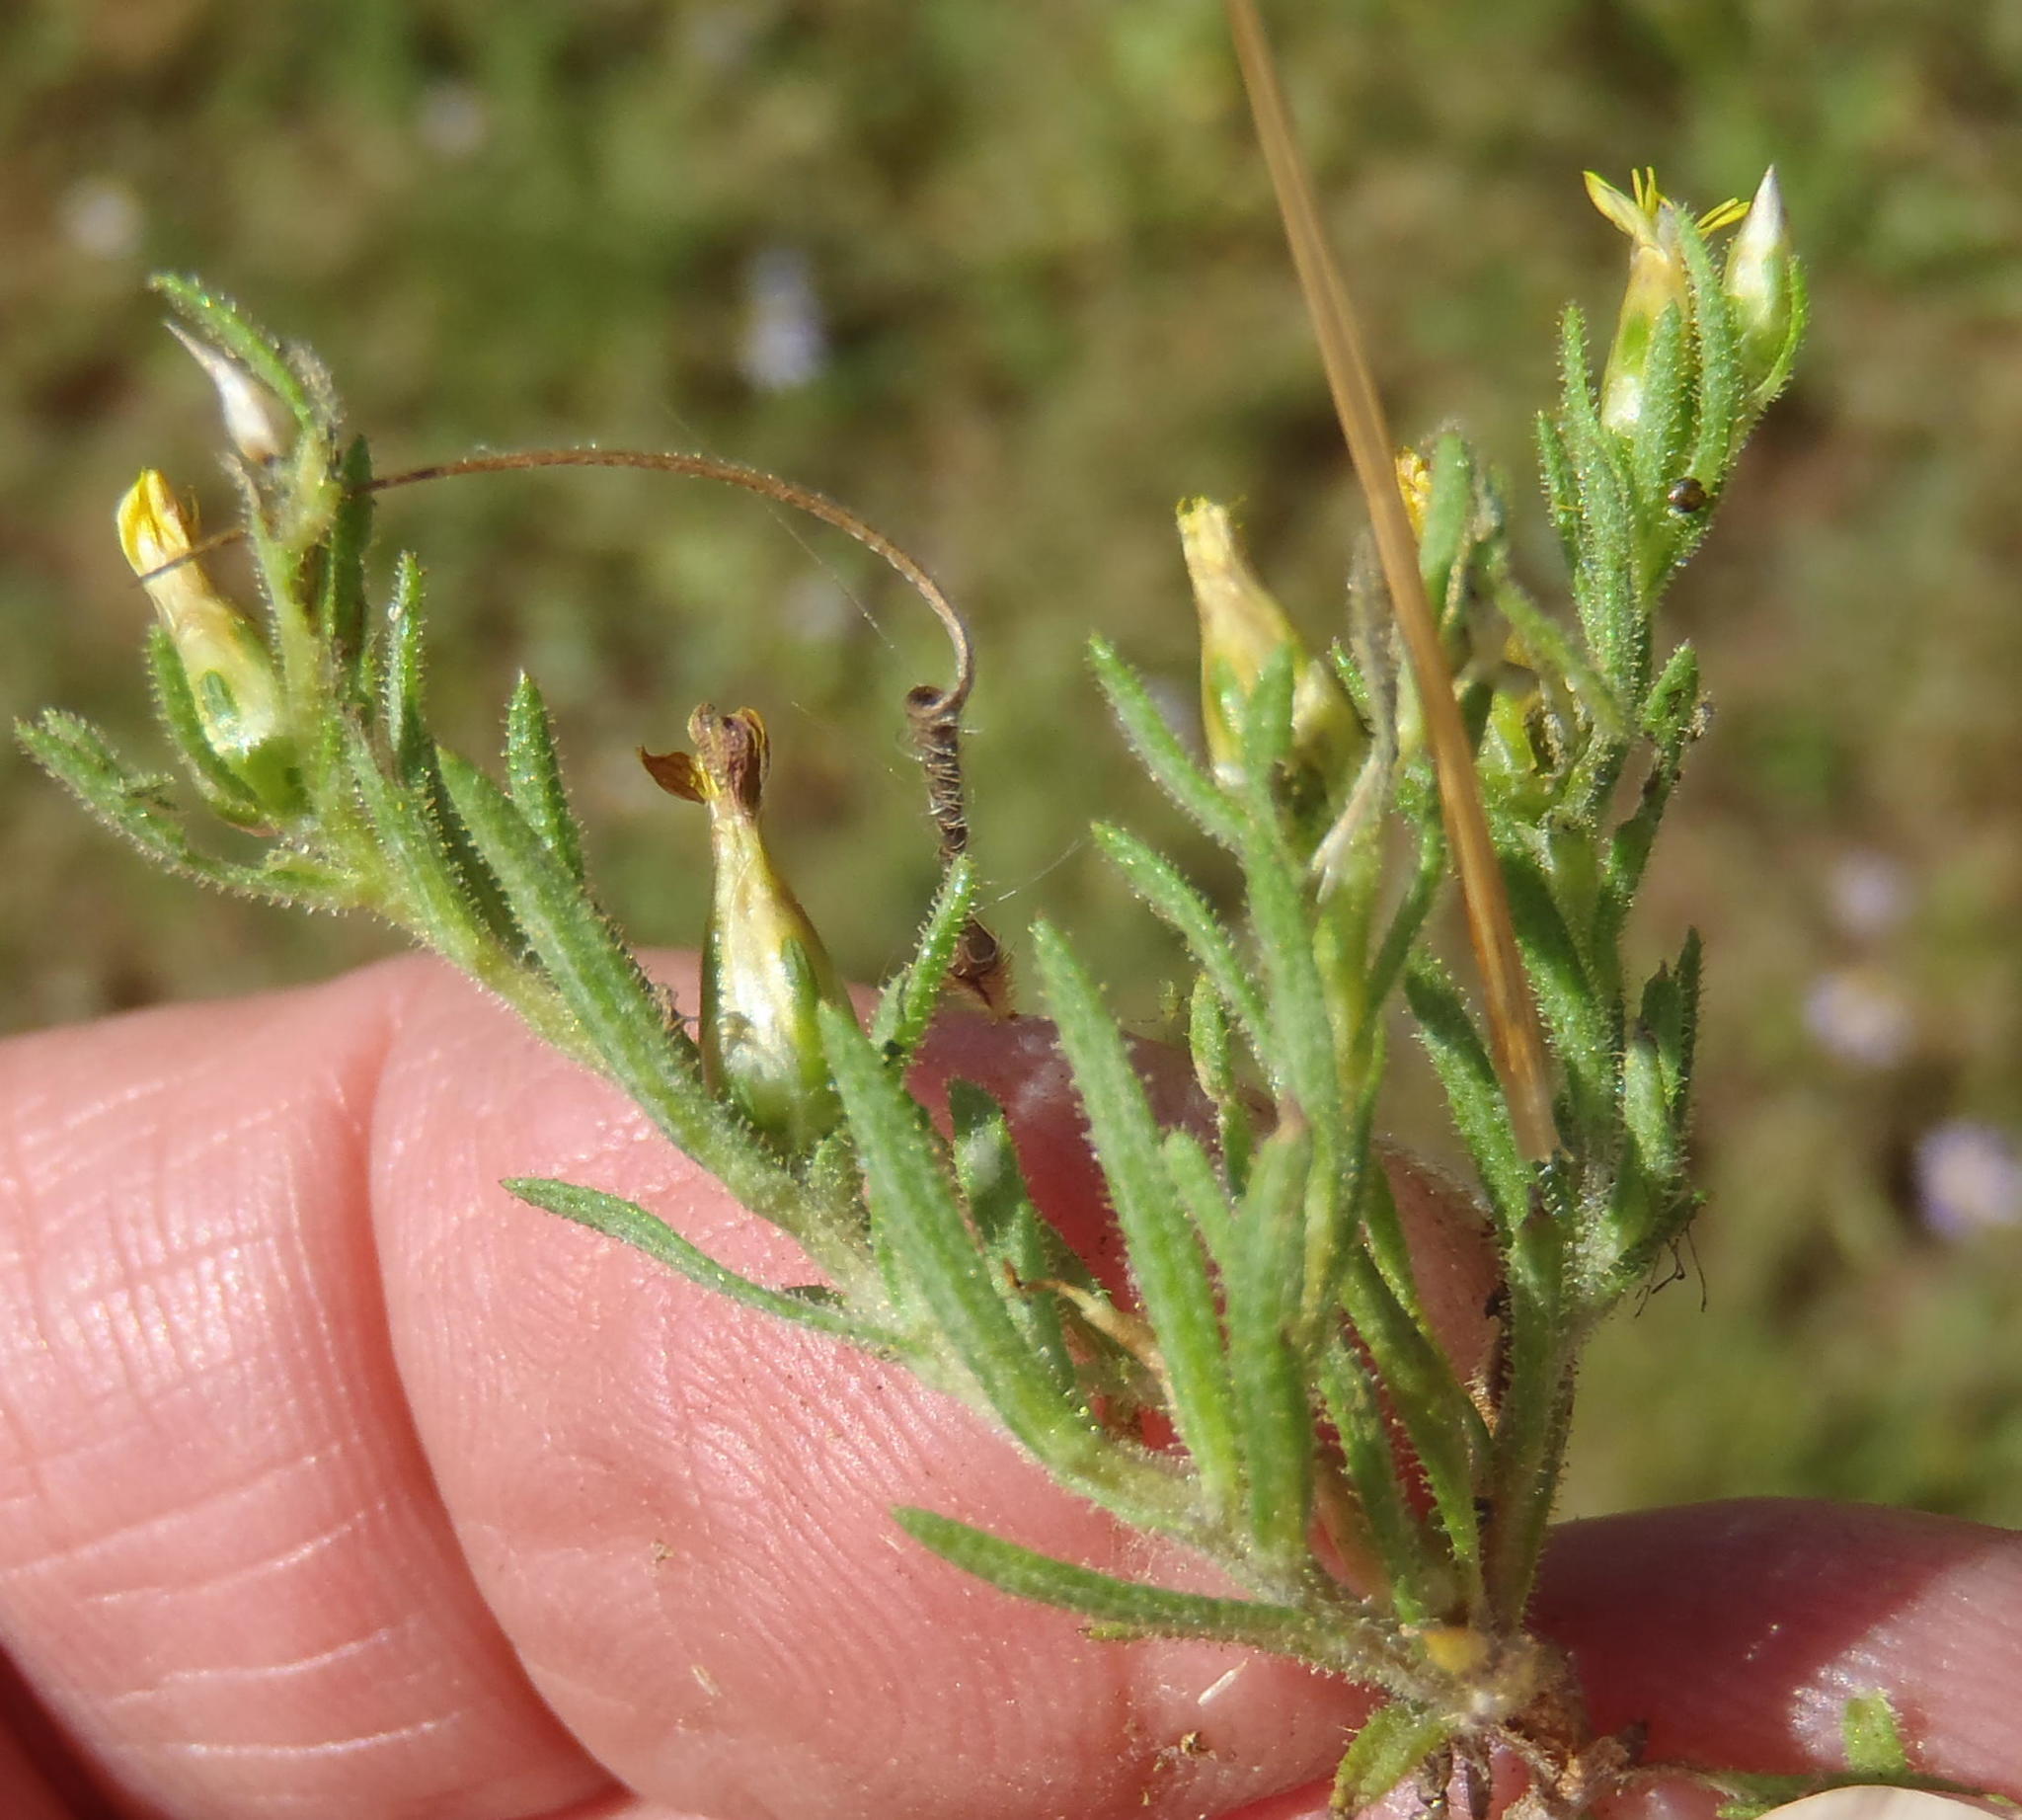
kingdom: Plantae
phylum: Tracheophyta
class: Magnoliopsida
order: Asterales
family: Asteraceae
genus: Rhynchopsidium
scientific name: Rhynchopsidium sessiliflorum
